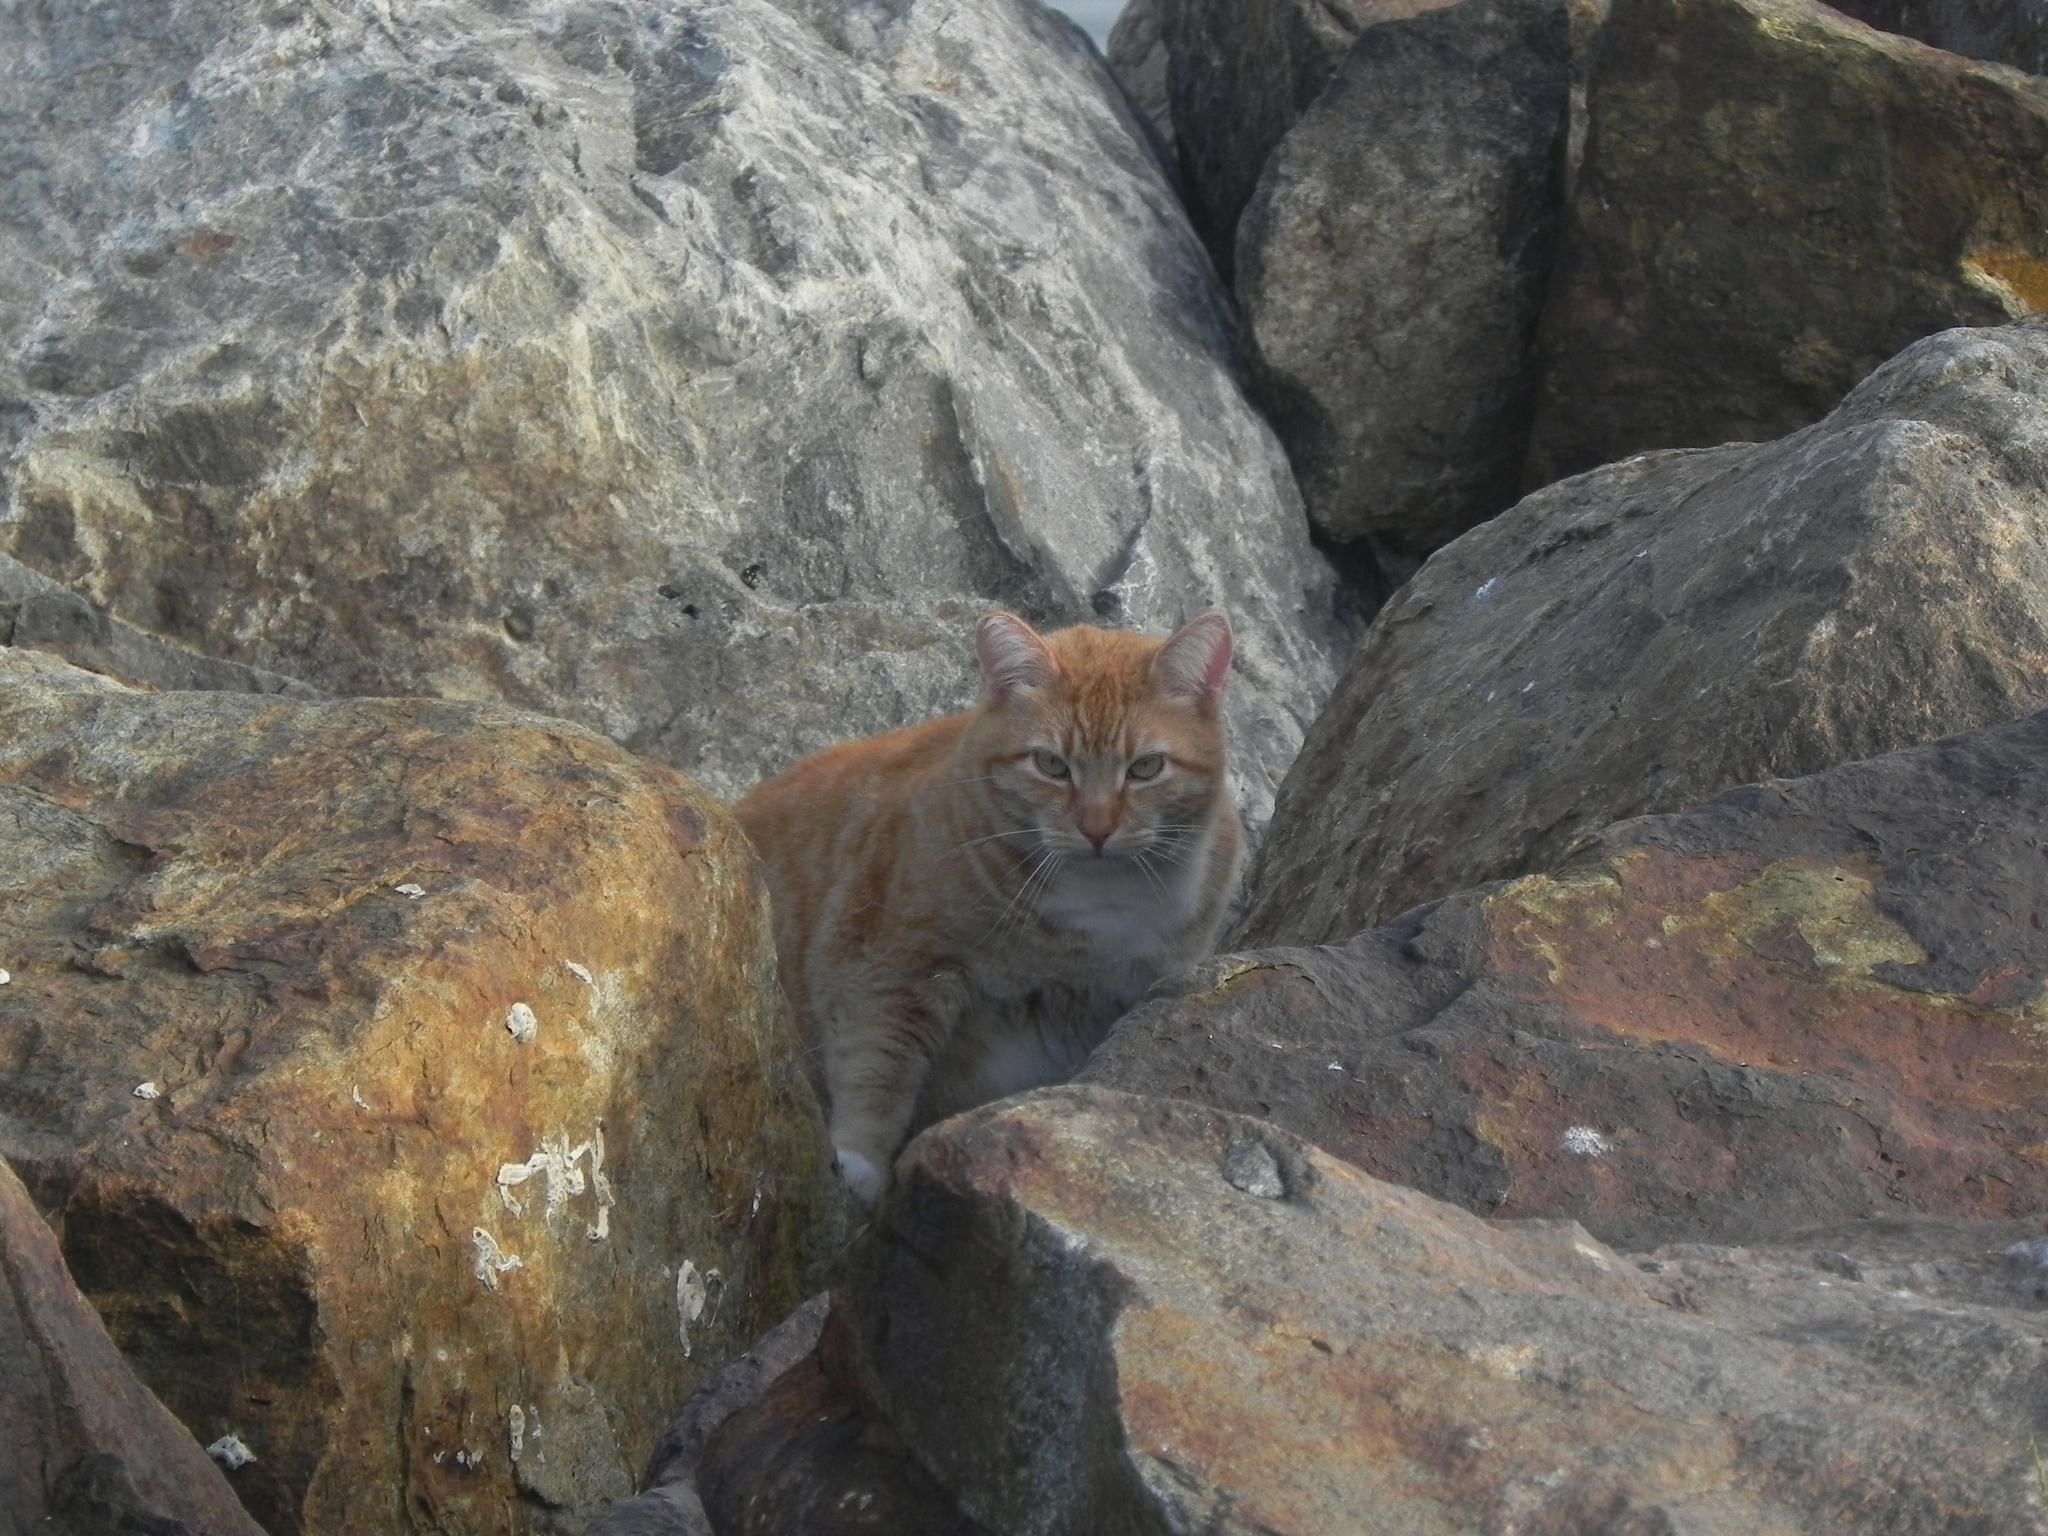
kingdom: Animalia
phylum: Chordata
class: Mammalia
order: Carnivora
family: Felidae
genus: Felis
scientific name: Felis catus
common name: Domestic cat
